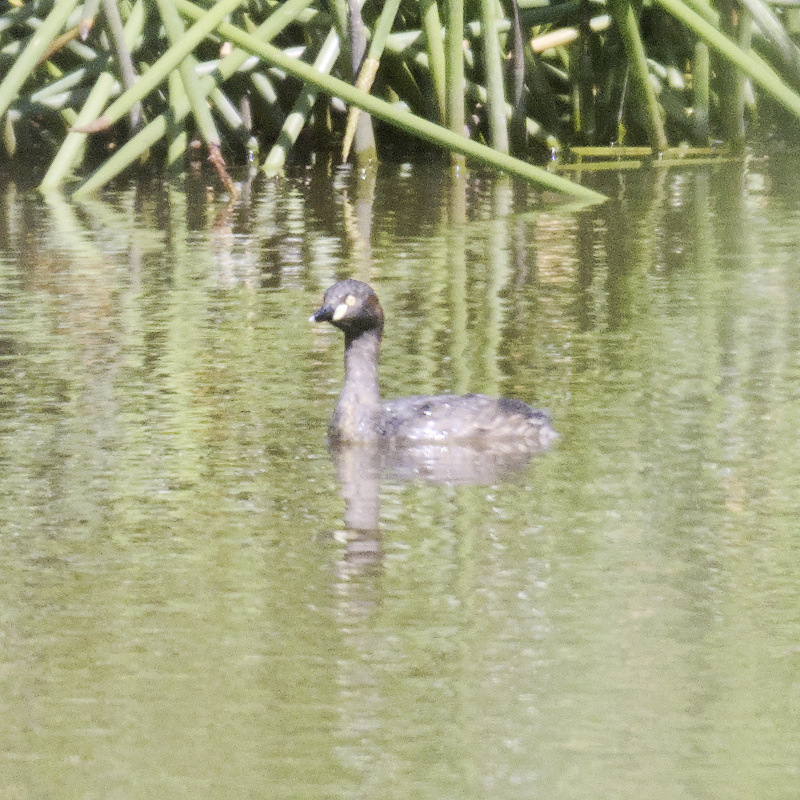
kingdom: Animalia
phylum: Chordata
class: Aves
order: Podicipediformes
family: Podicipedidae
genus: Tachybaptus
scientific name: Tachybaptus novaehollandiae
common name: Australasian grebe
